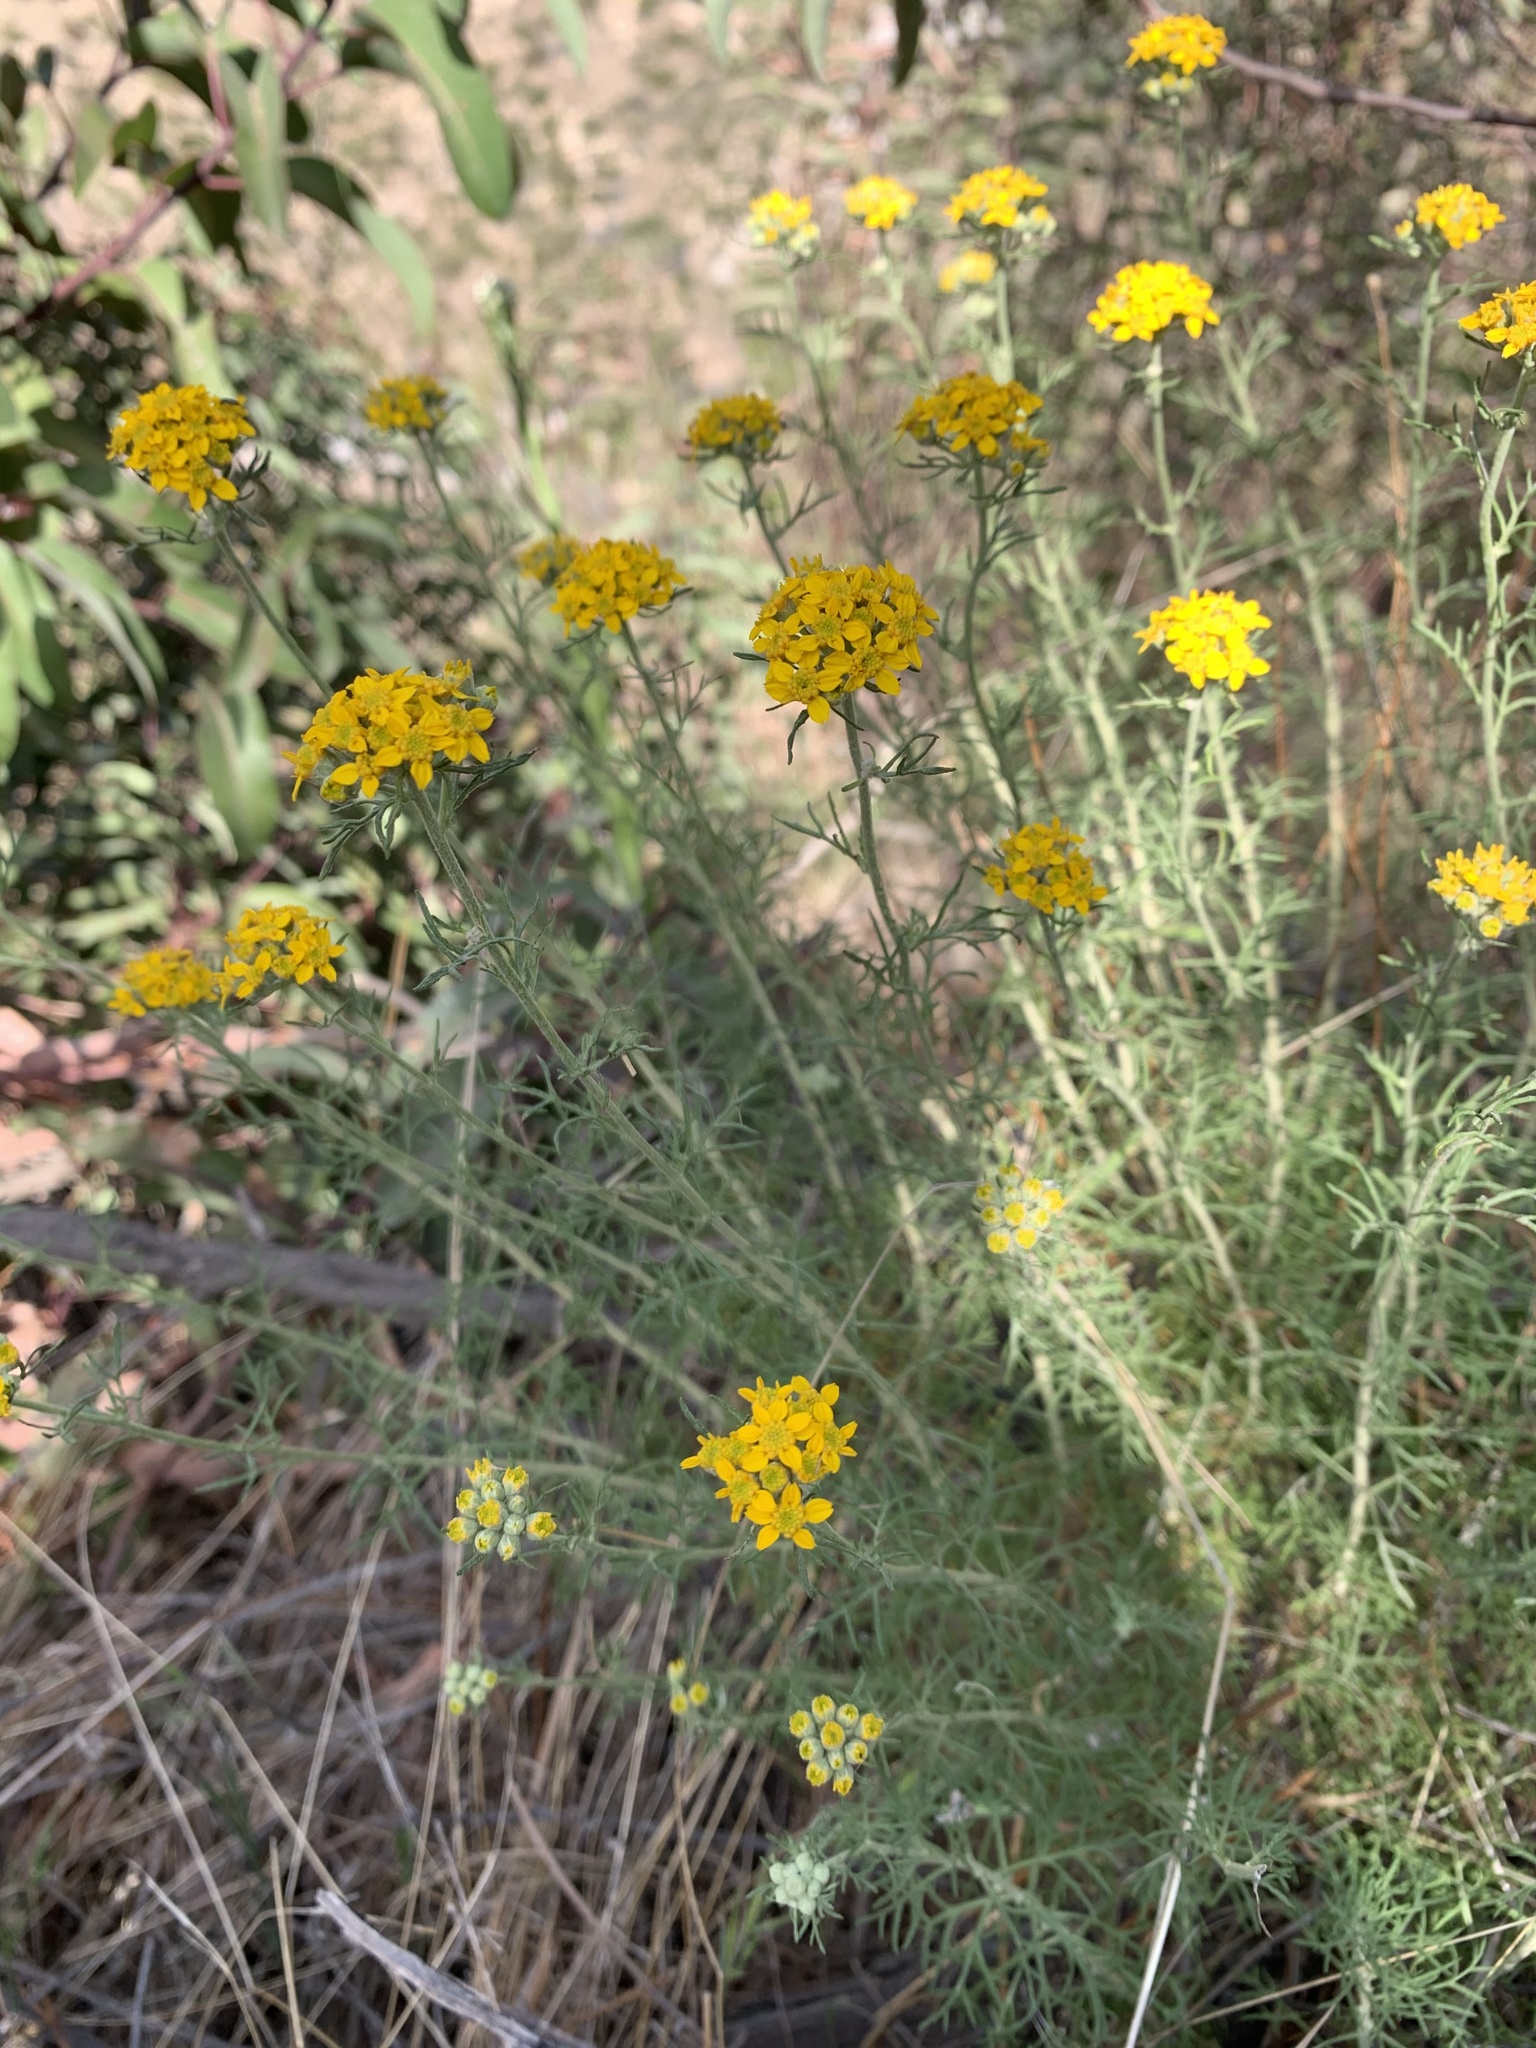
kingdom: Plantae
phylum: Tracheophyta
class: Magnoliopsida
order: Asterales
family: Asteraceae
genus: Eriophyllum
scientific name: Eriophyllum confertiflorum
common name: Golden-yarrow
